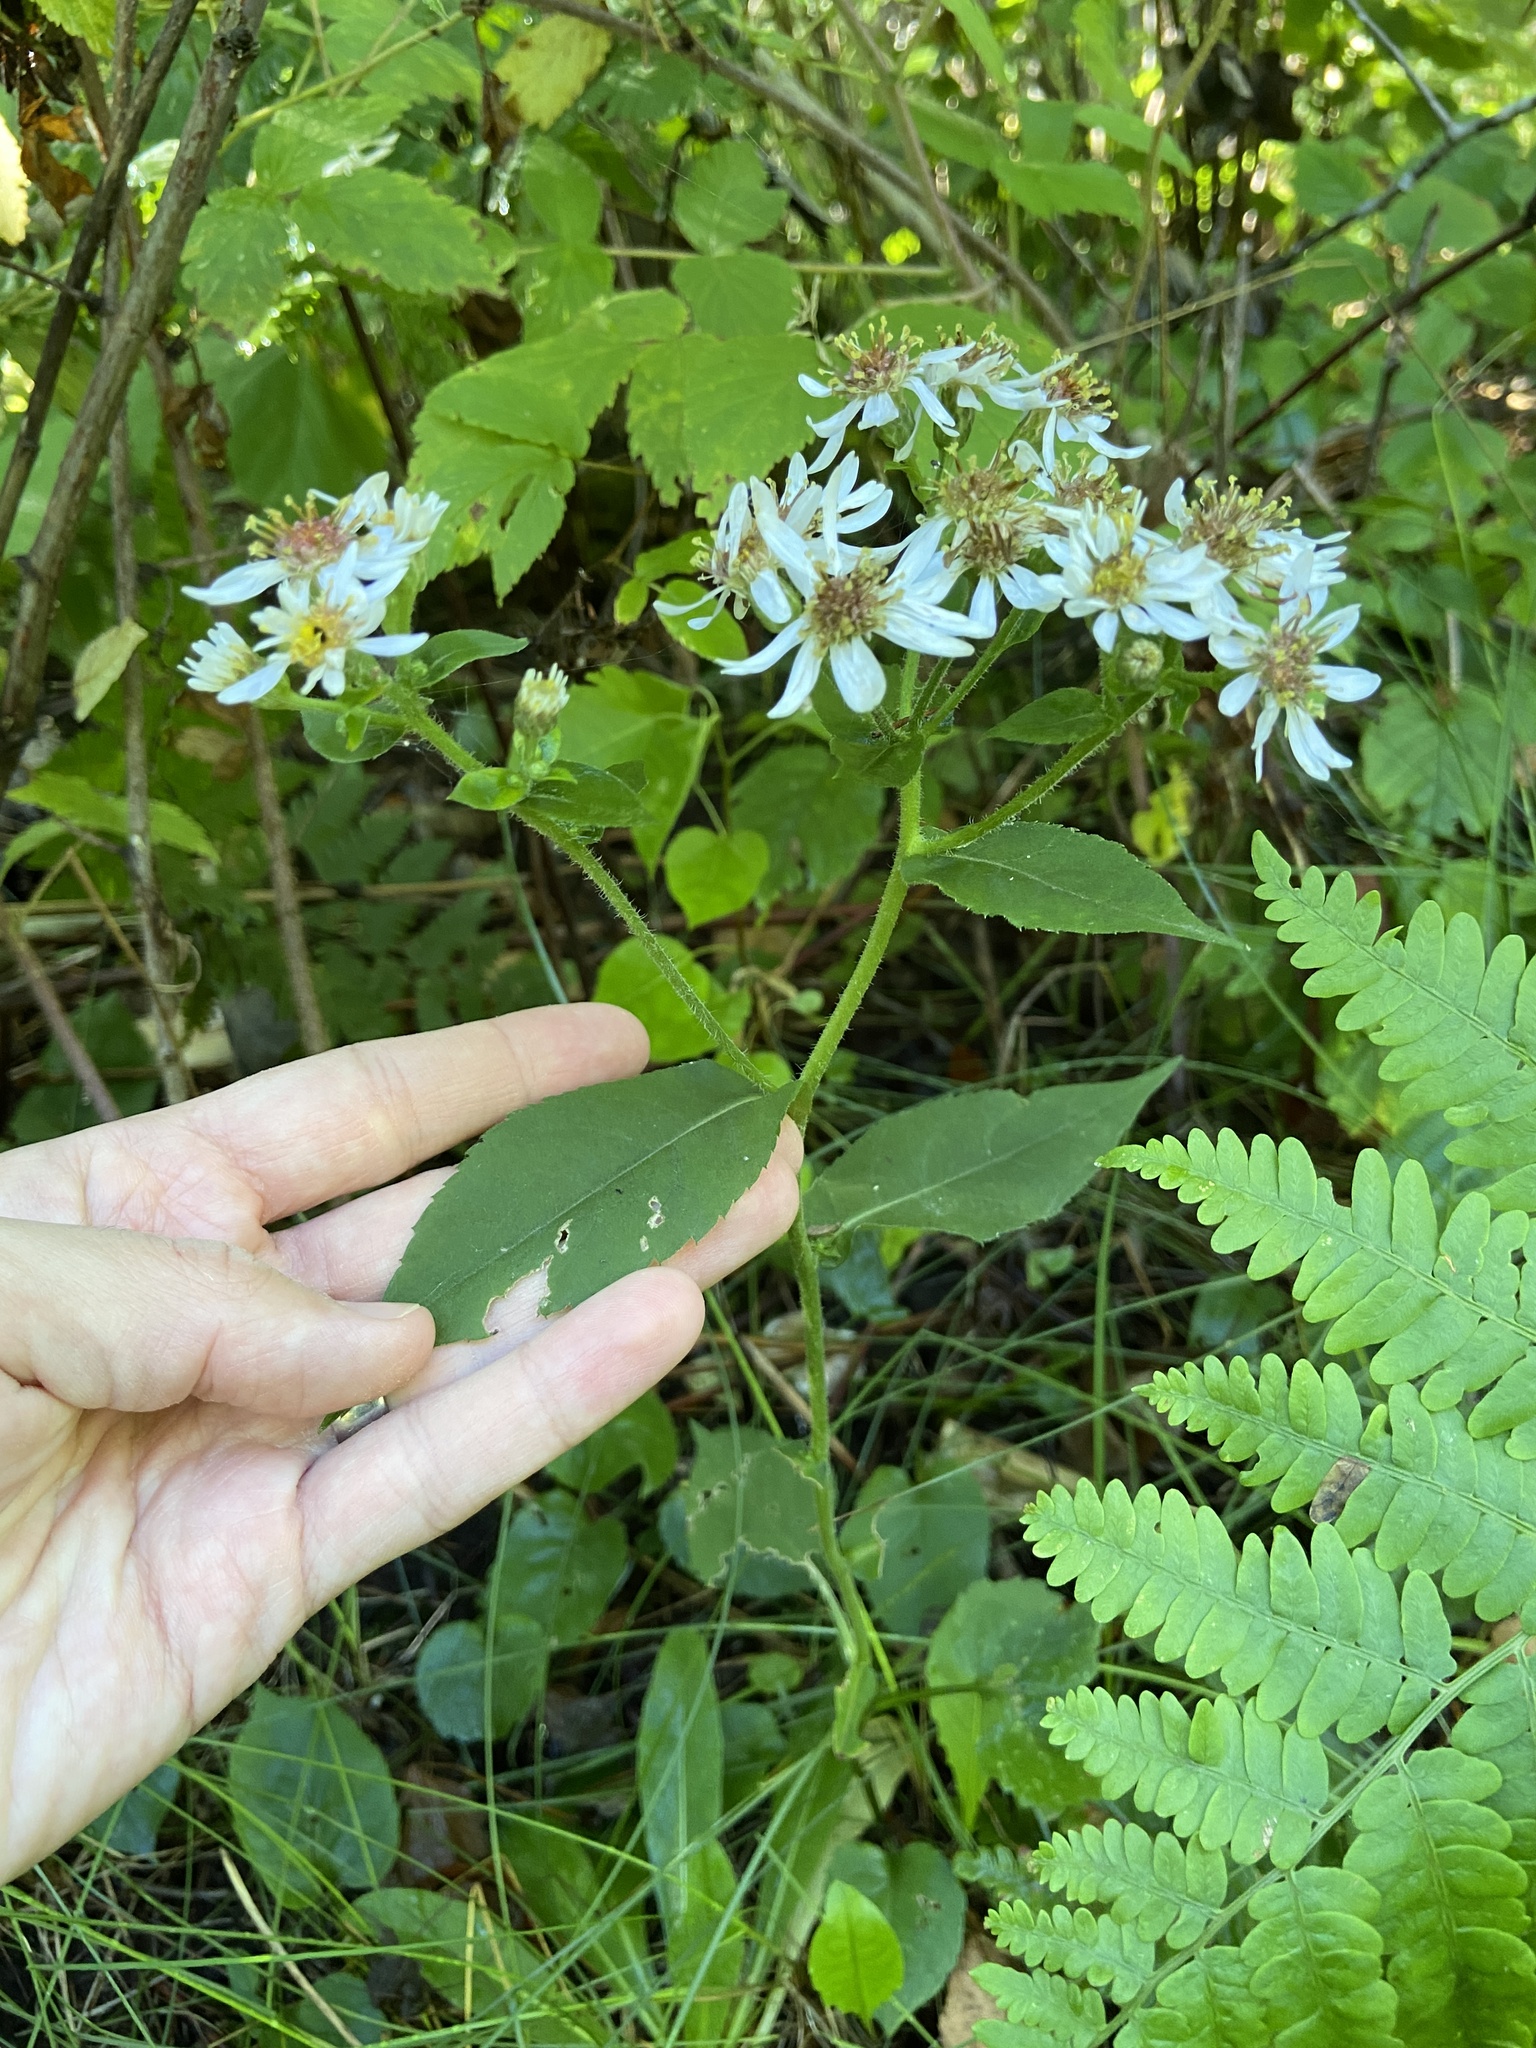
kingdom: Plantae
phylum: Tracheophyta
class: Magnoliopsida
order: Asterales
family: Asteraceae
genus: Eurybia
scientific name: Eurybia macrophylla
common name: Big-leaved aster
